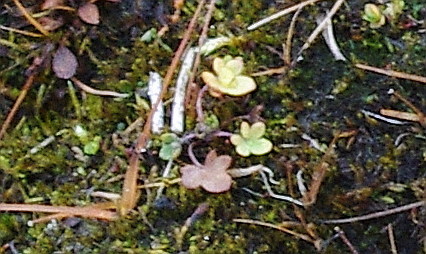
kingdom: Plantae
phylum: Tracheophyta
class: Magnoliopsida
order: Saxifragales
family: Saxifragaceae
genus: Saxifraga
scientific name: Saxifraga cernua
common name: Drooping saxifrage
